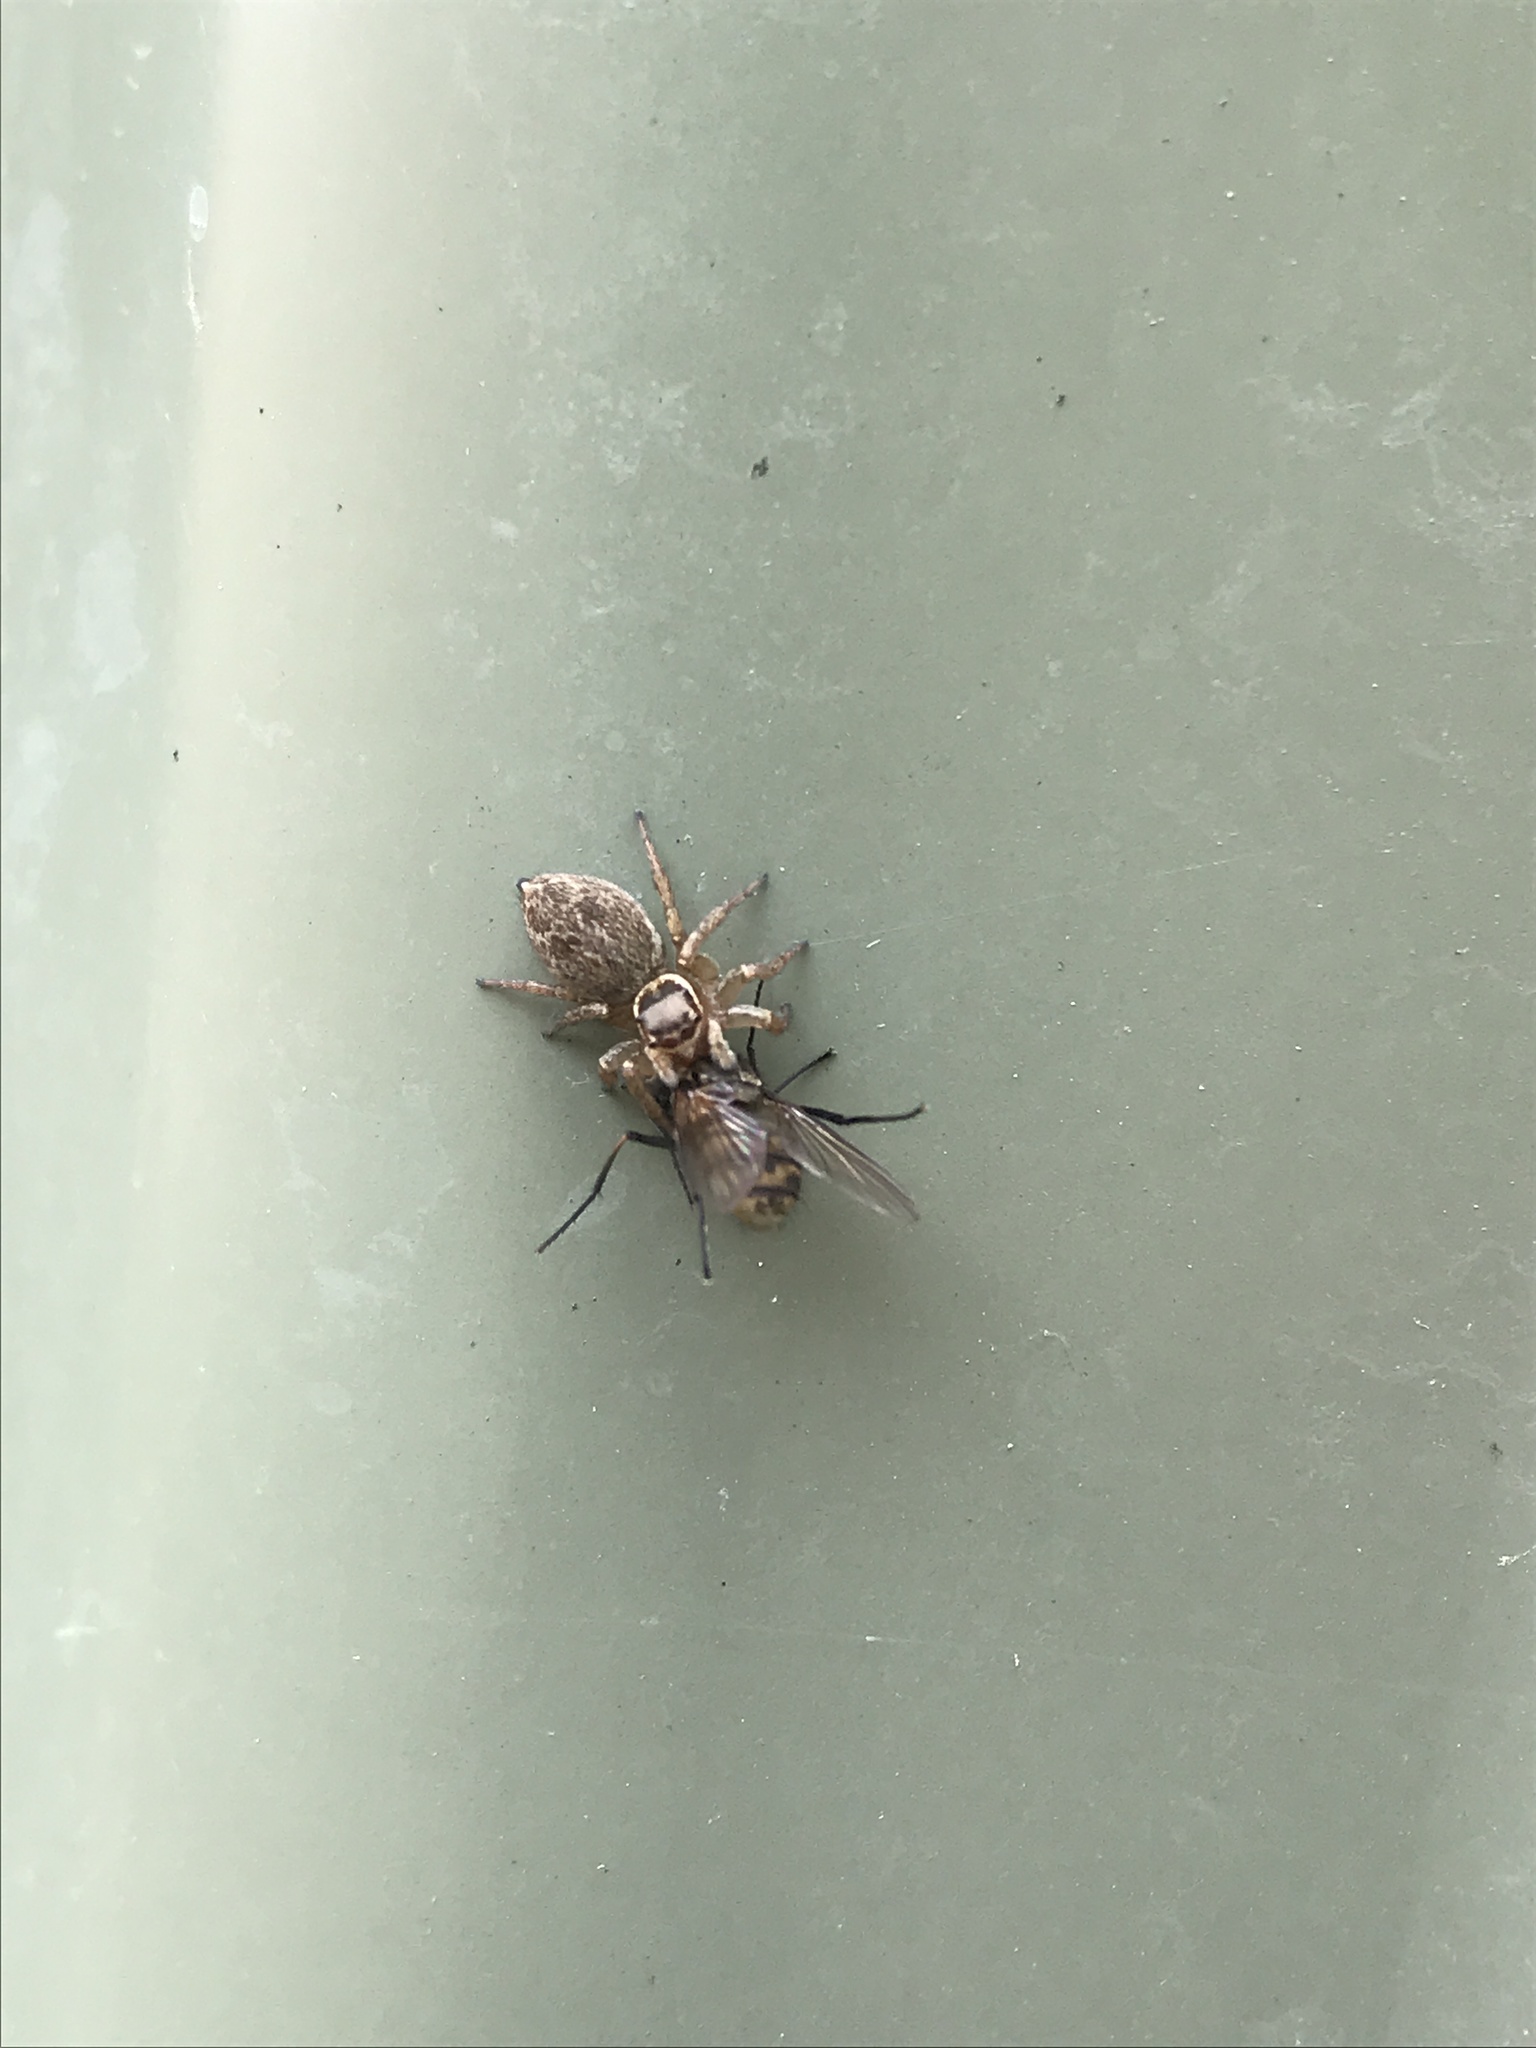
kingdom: Animalia
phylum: Arthropoda
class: Arachnida
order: Araneae
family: Salticidae
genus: Maratus
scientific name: Maratus griseus
